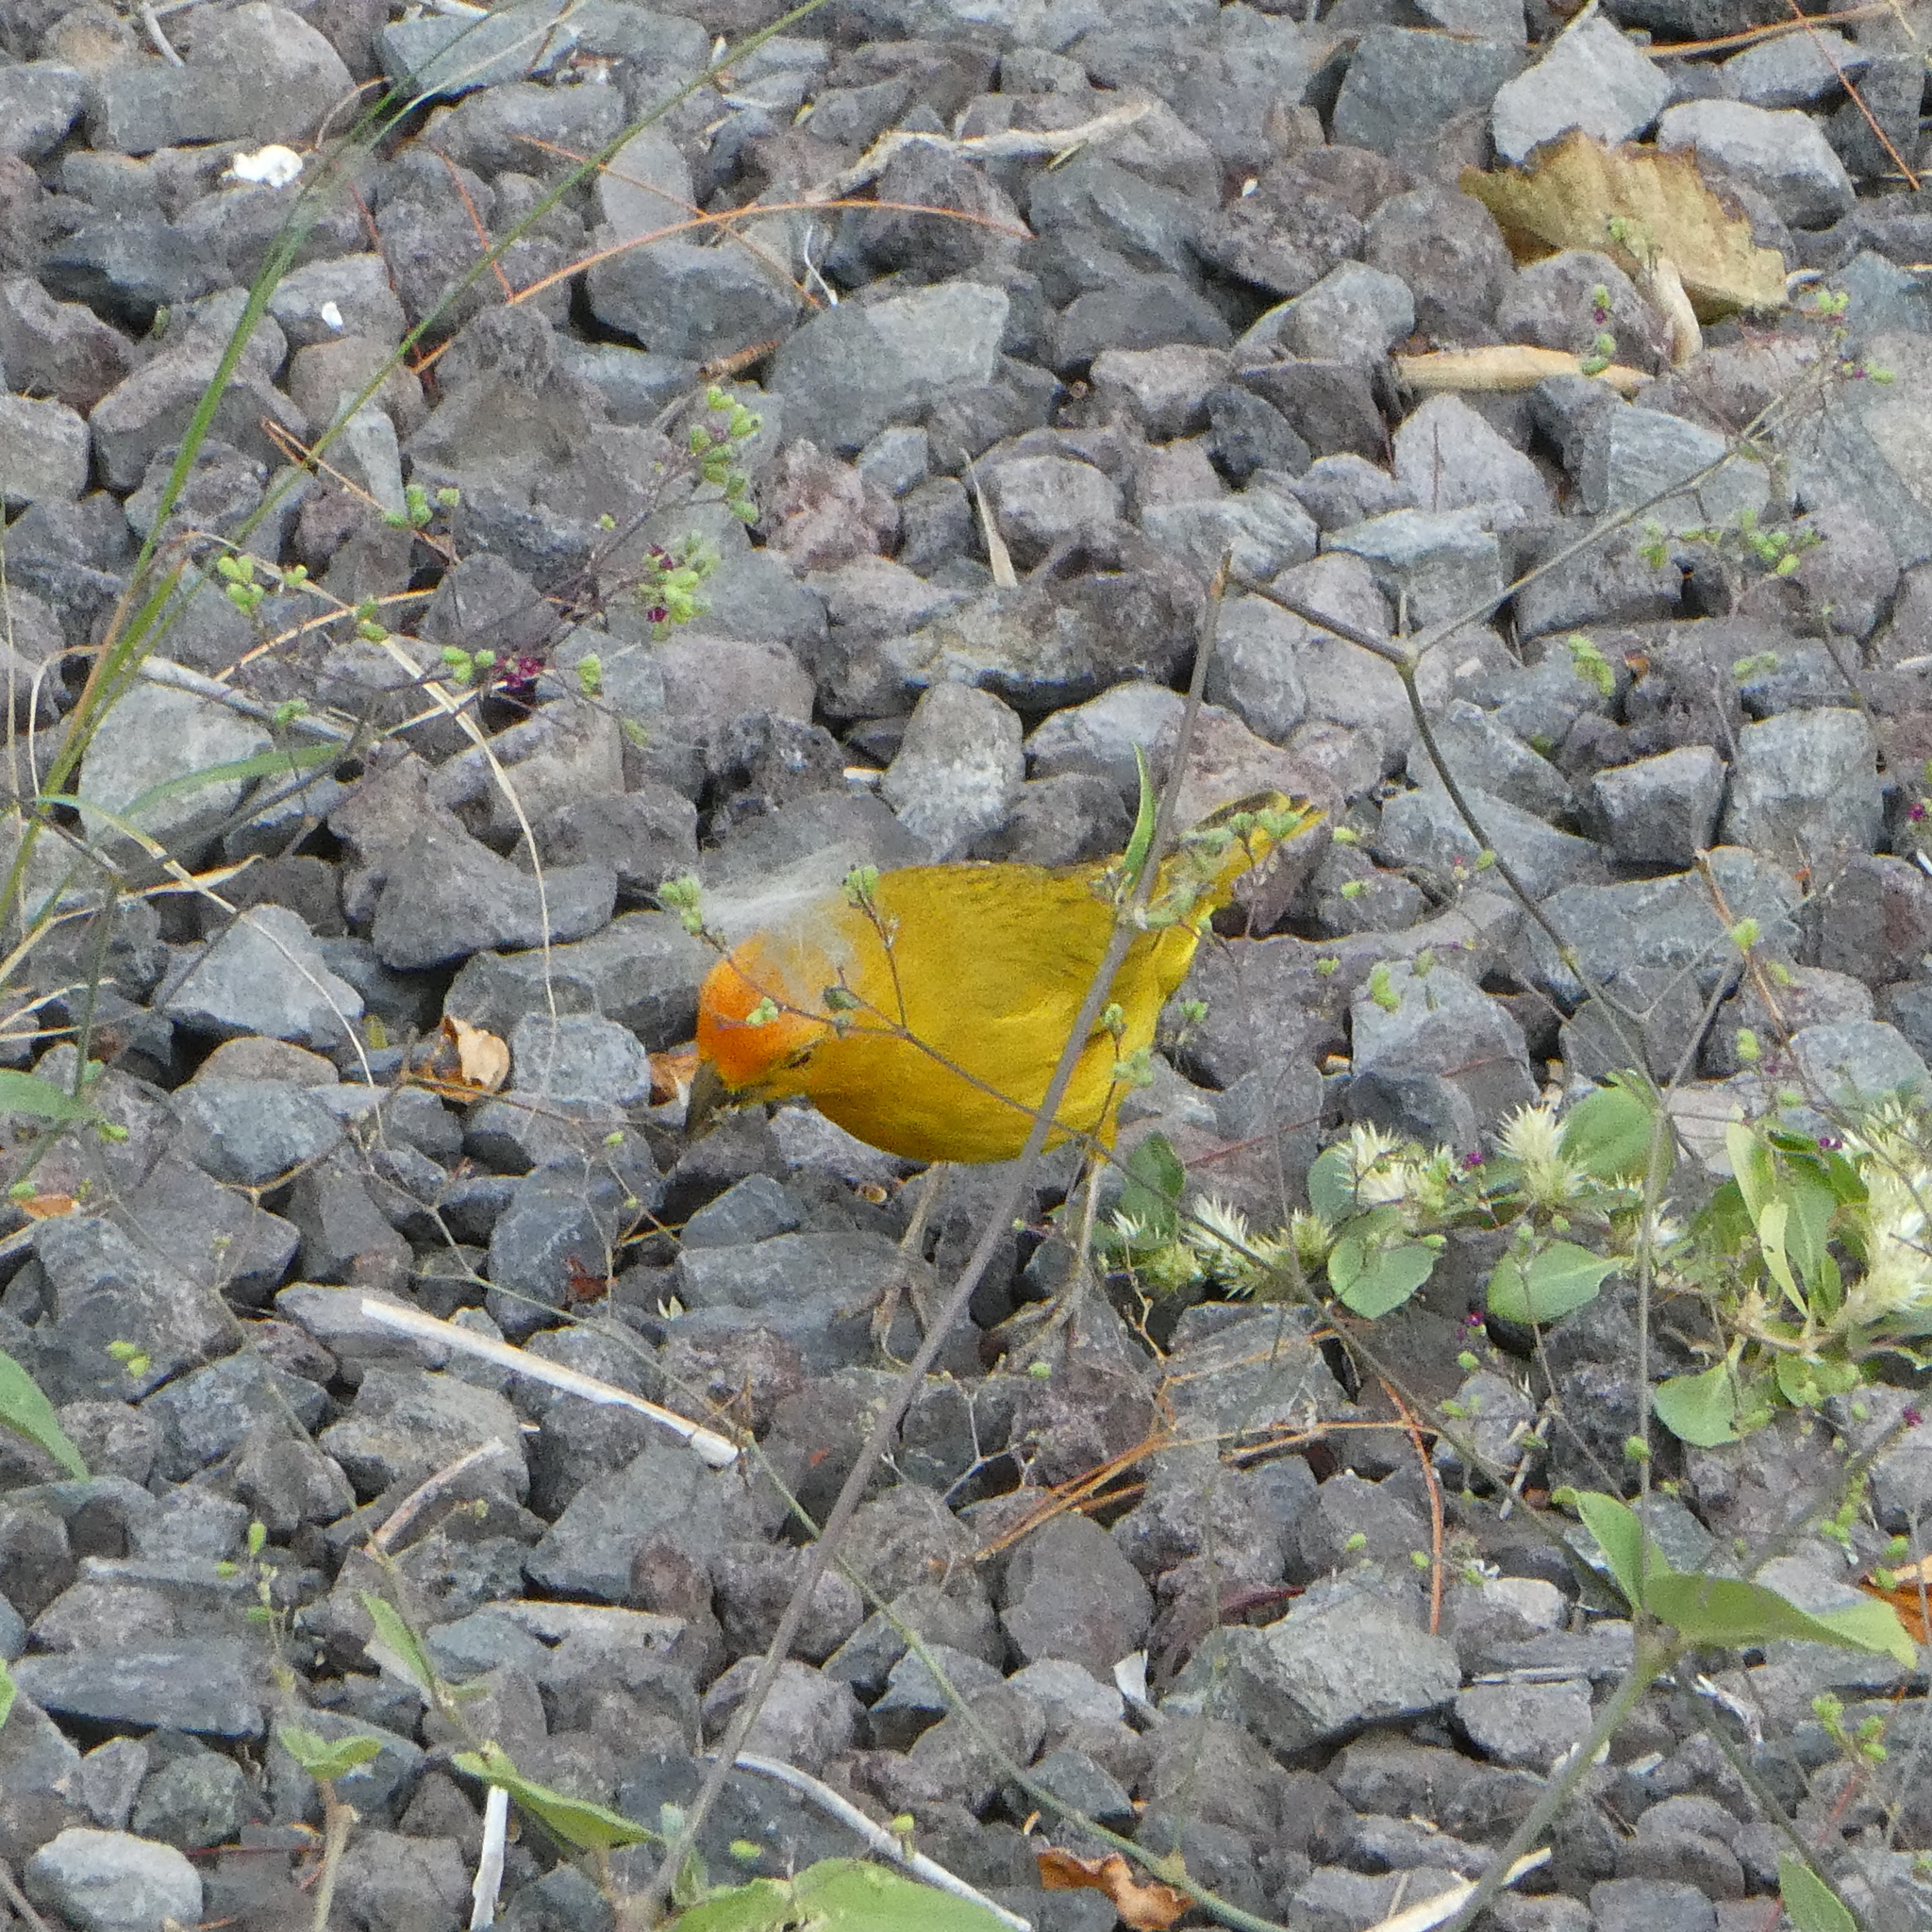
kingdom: Animalia
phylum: Chordata
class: Aves
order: Passeriformes
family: Thraupidae
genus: Sicalis
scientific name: Sicalis flaveola
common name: Saffron finch
